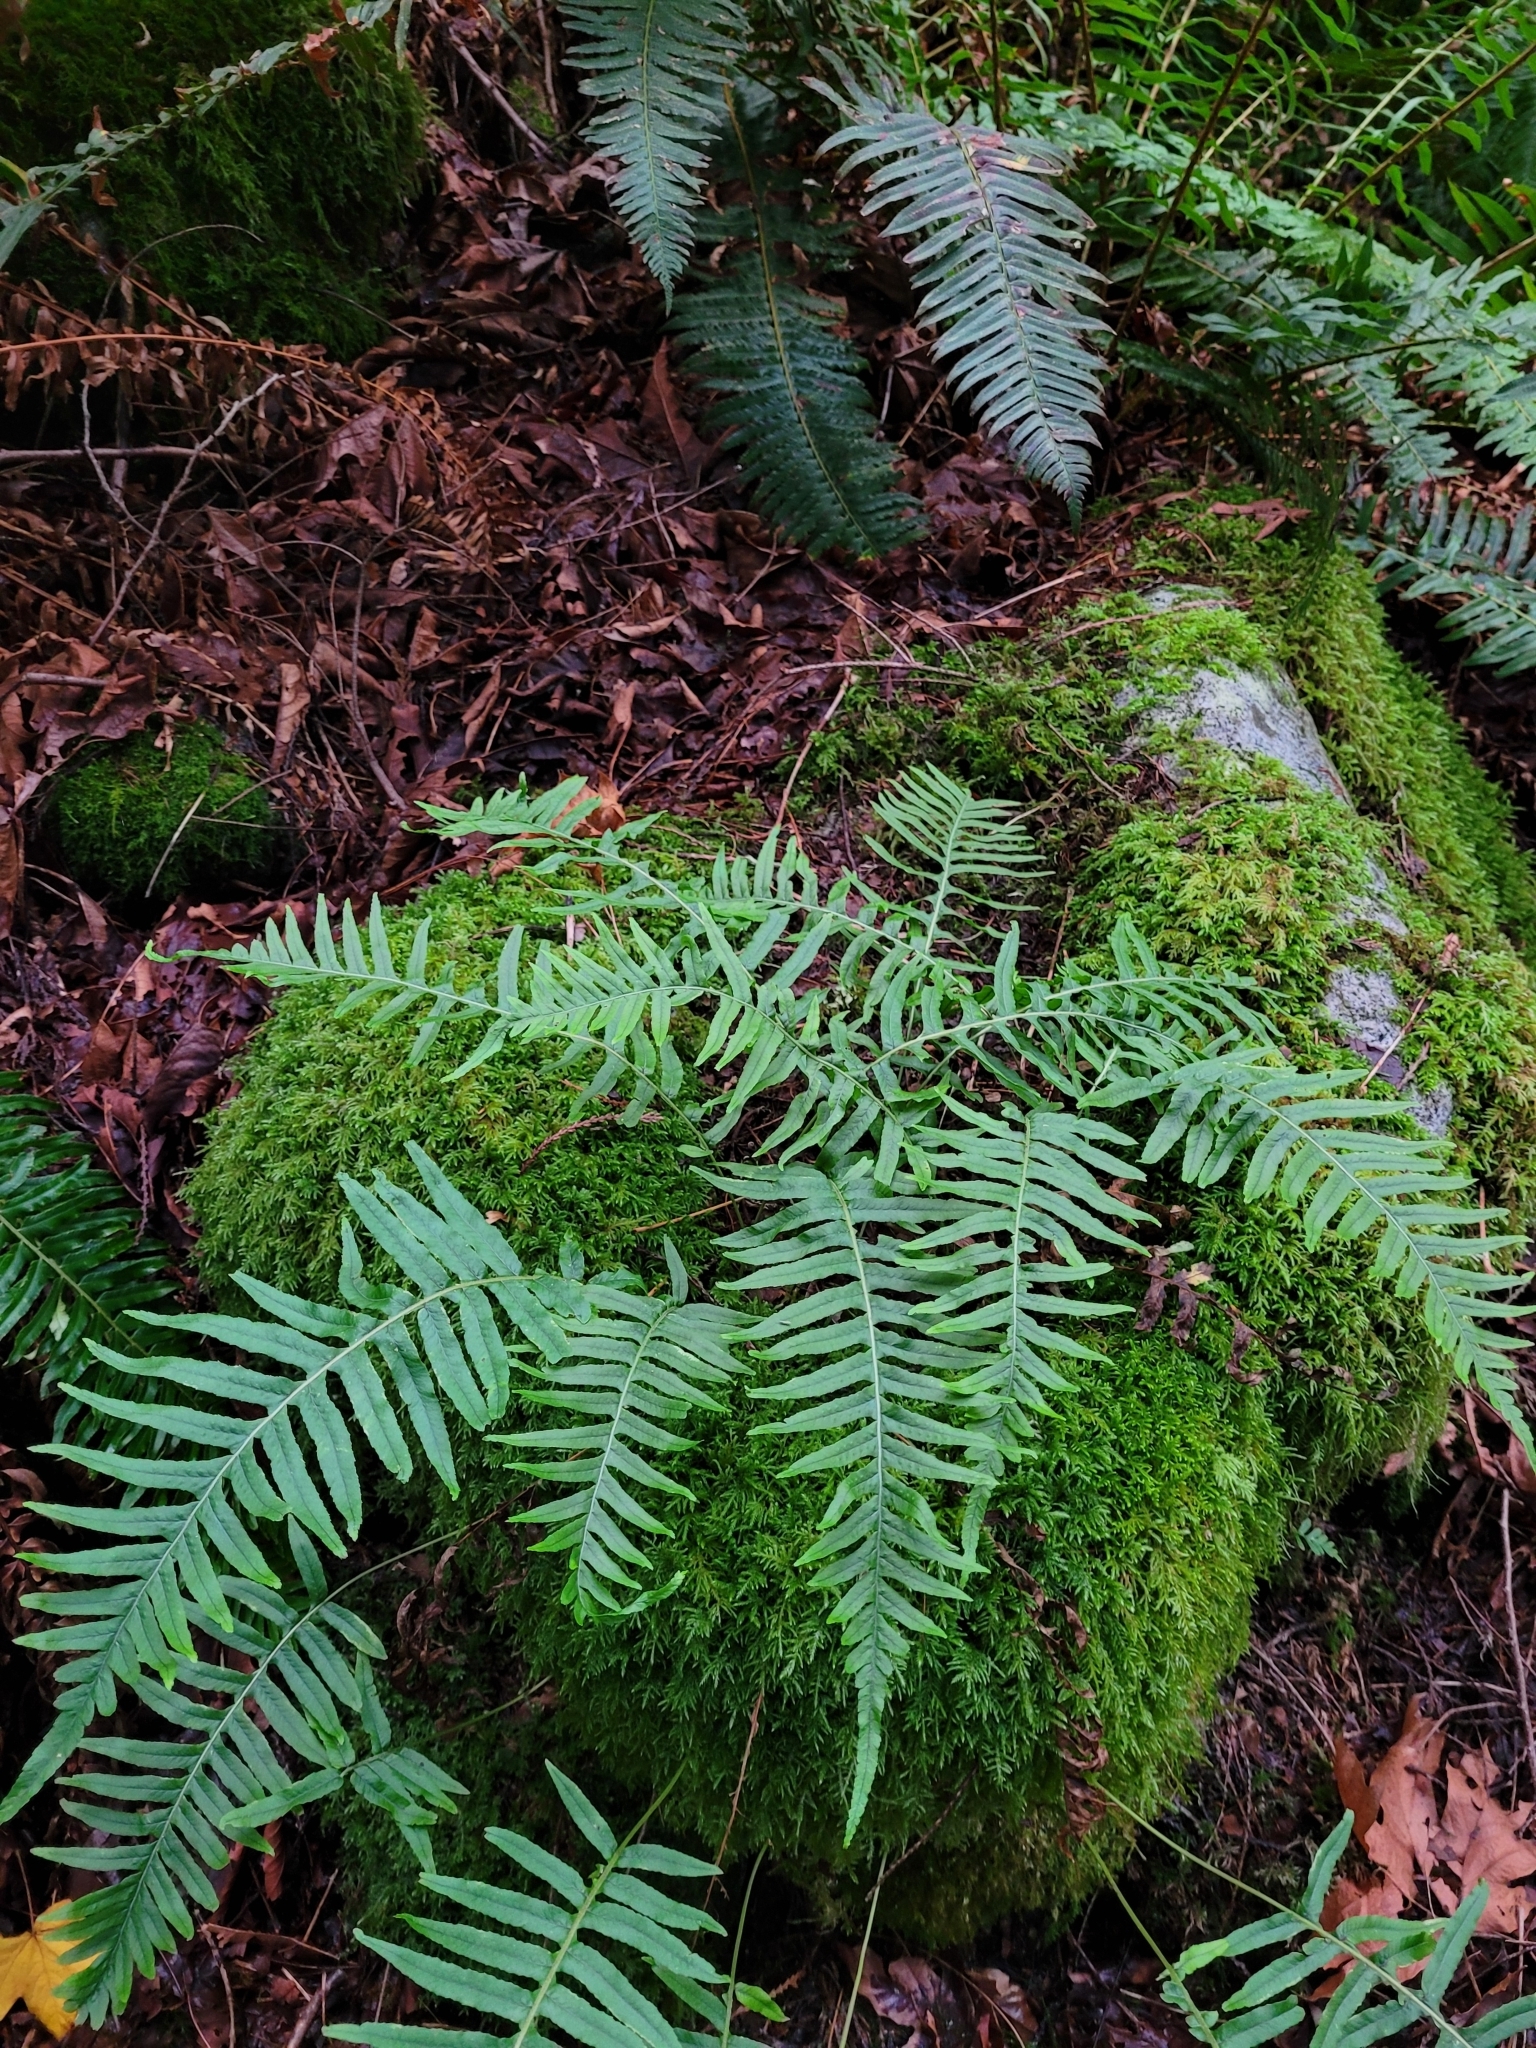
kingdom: Plantae
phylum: Tracheophyta
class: Polypodiopsida
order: Polypodiales
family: Polypodiaceae
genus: Polypodium
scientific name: Polypodium glycyrrhiza
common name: Licorice fern
